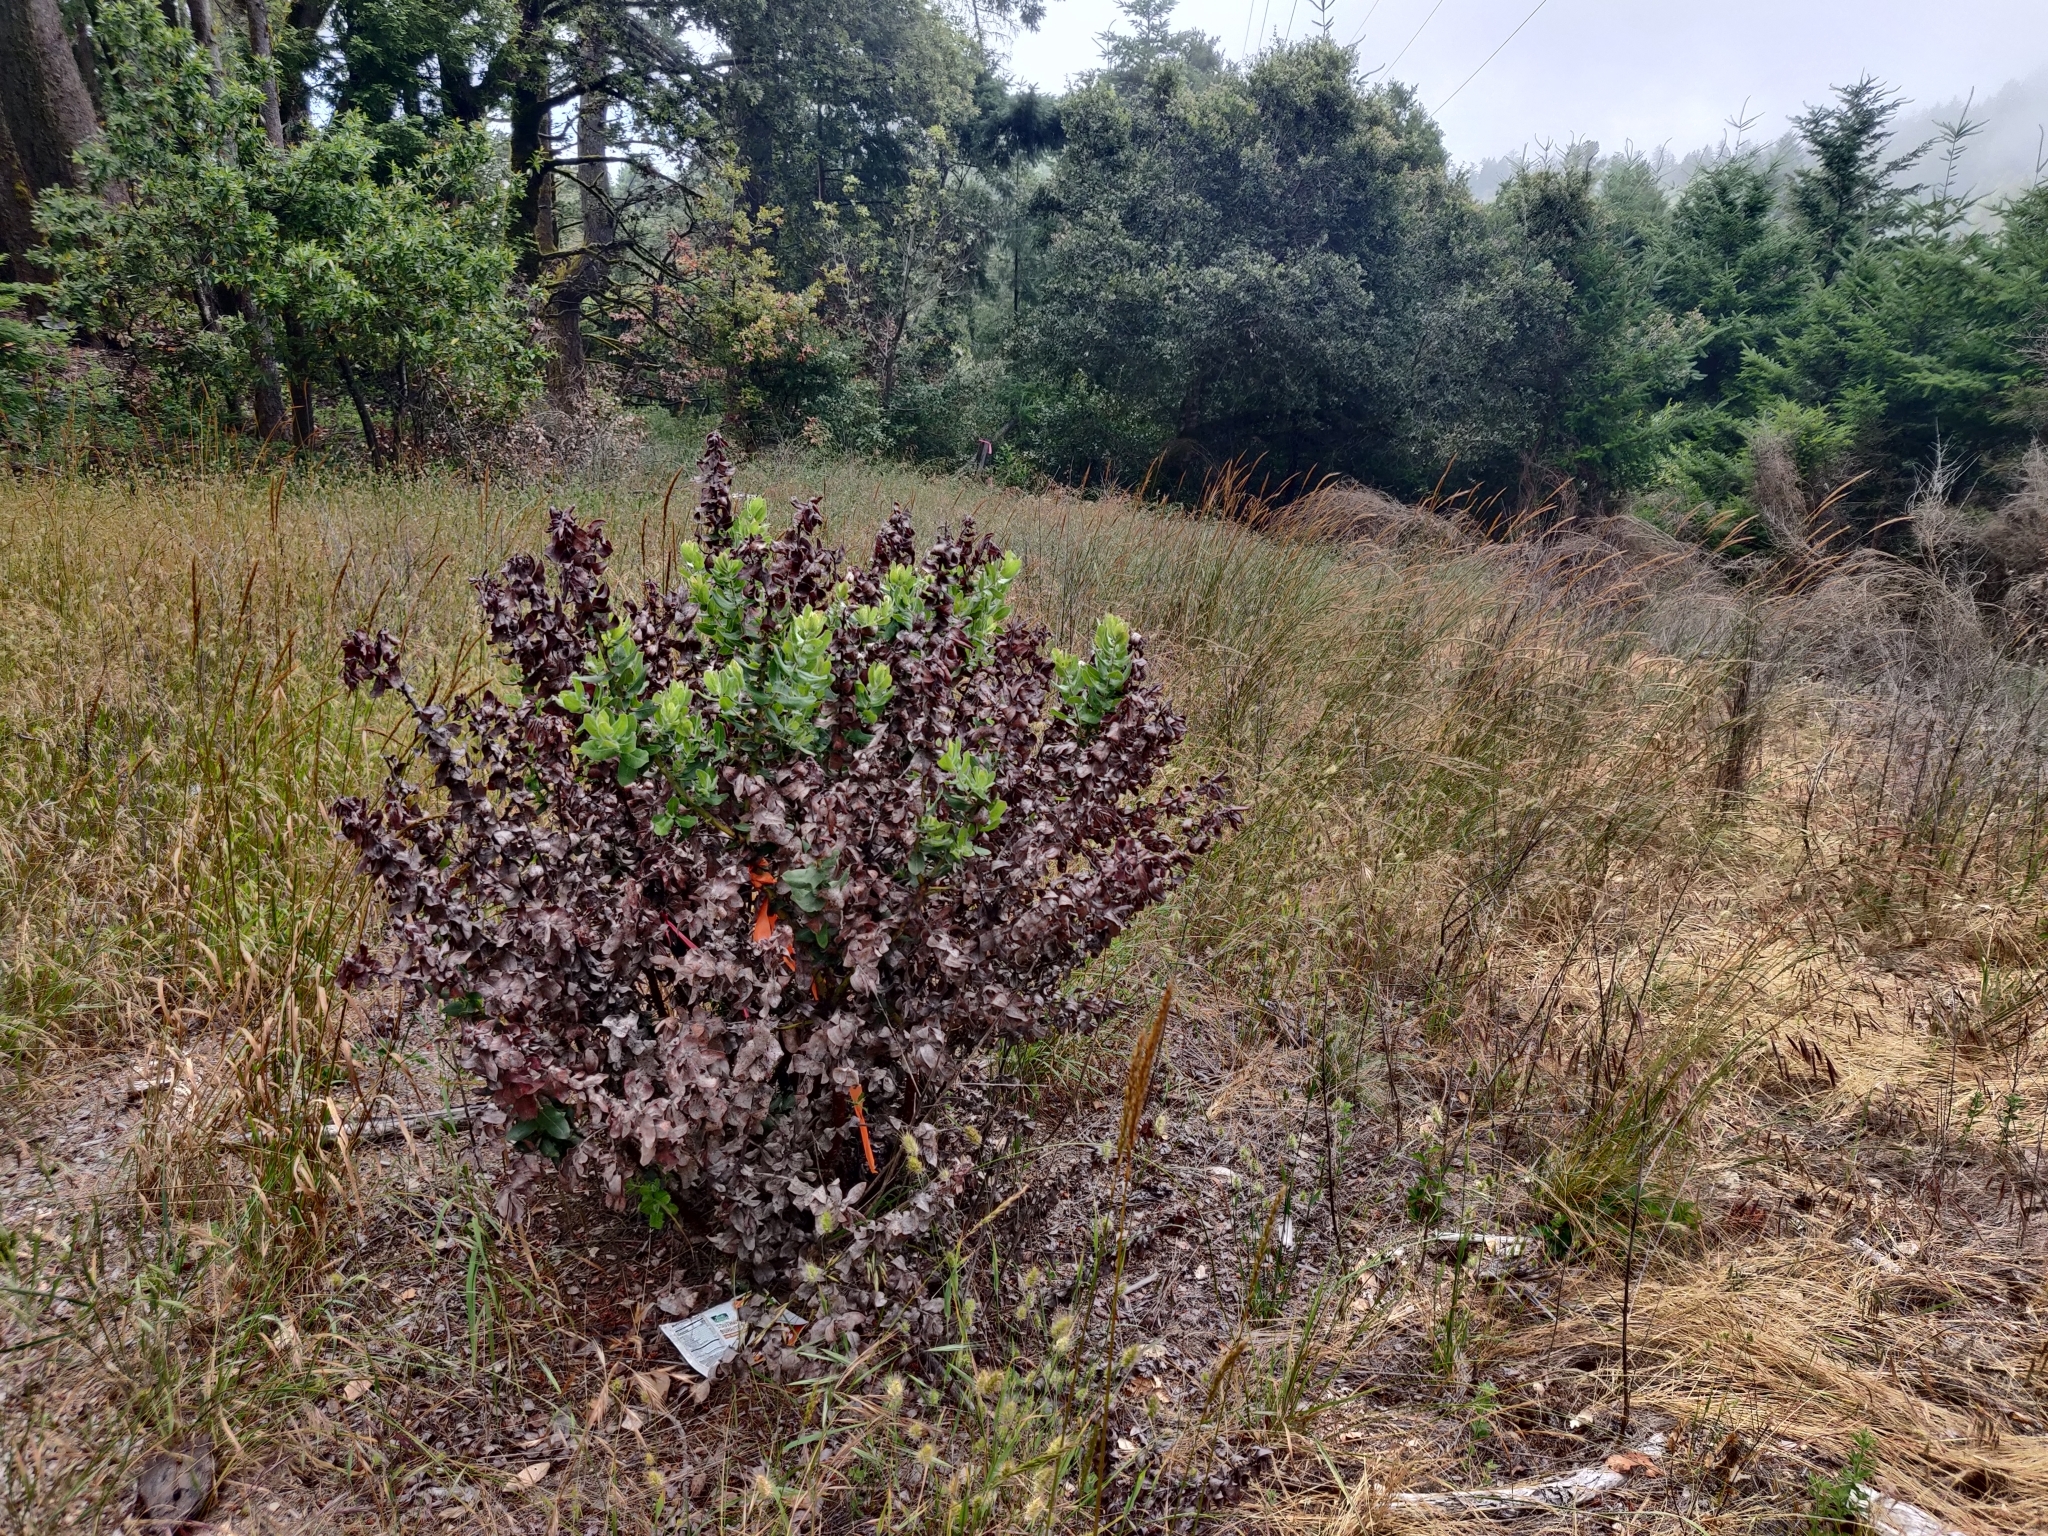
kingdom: Plantae
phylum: Tracheophyta
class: Magnoliopsida
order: Ericales
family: Ericaceae
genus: Arctostaphylos
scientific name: Arctostaphylos regismontana
